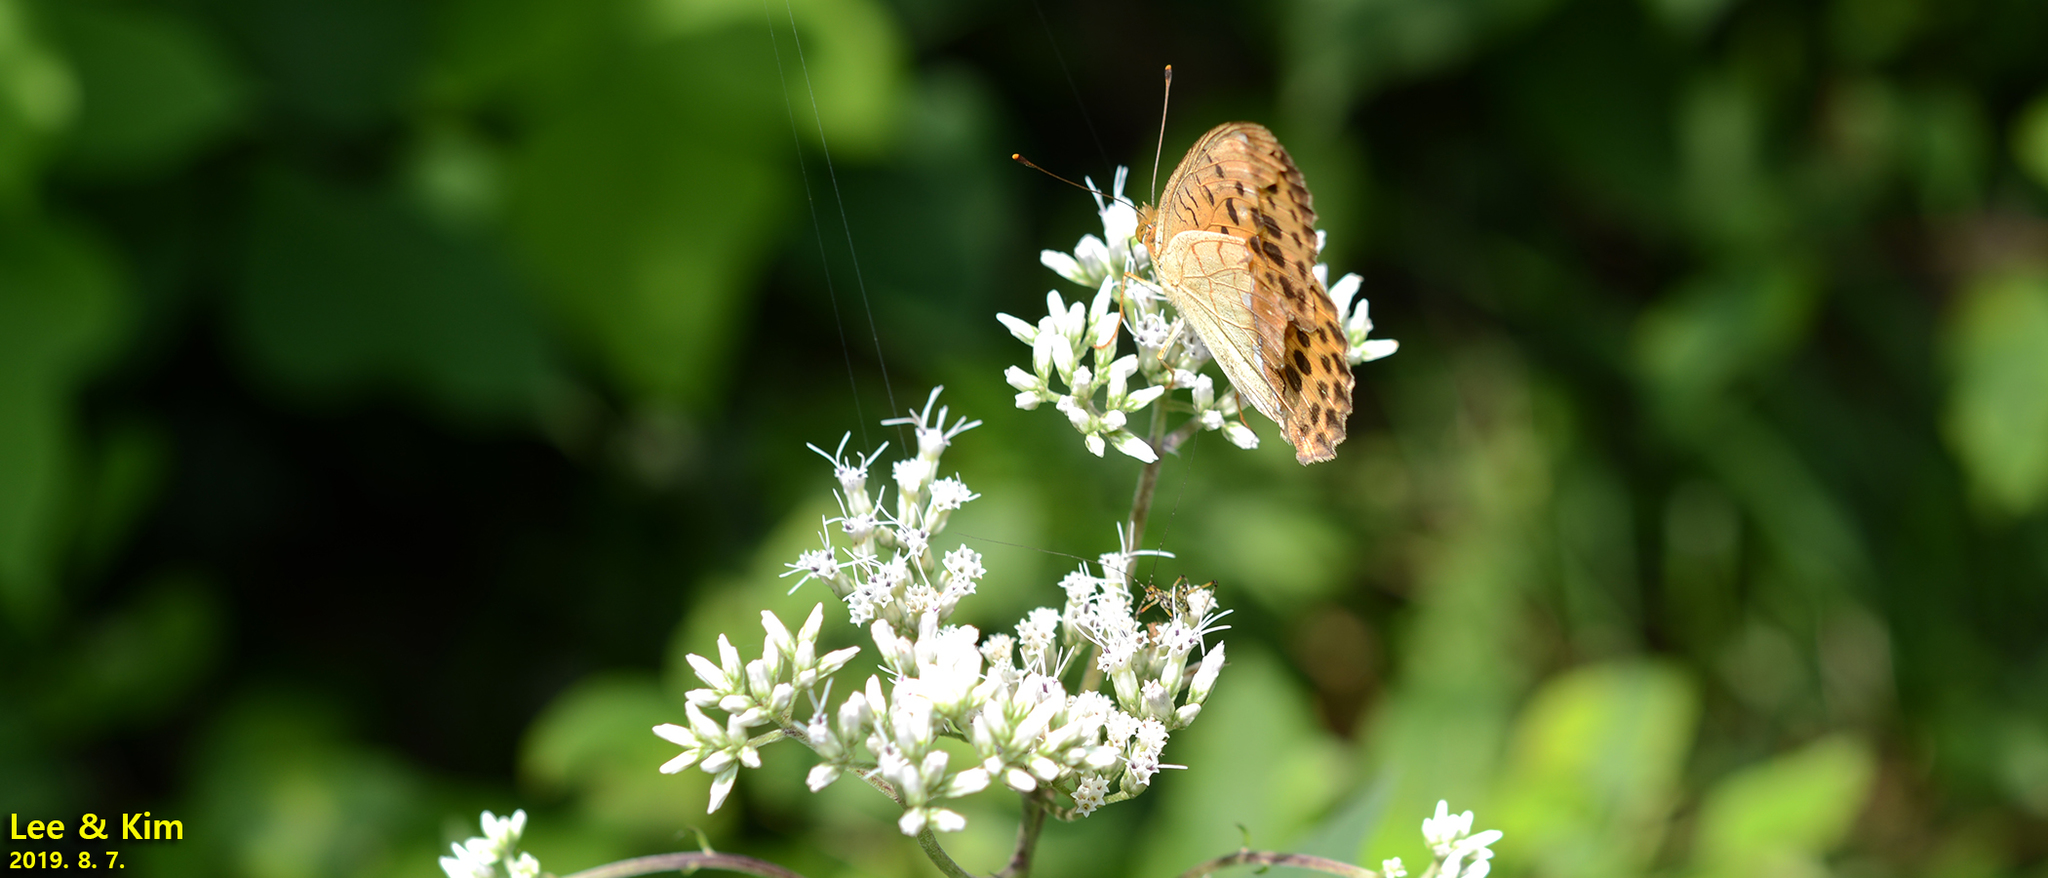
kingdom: Animalia
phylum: Arthropoda
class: Insecta
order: Lepidoptera
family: Nymphalidae
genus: Argyronome
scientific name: Argyronome laodice
